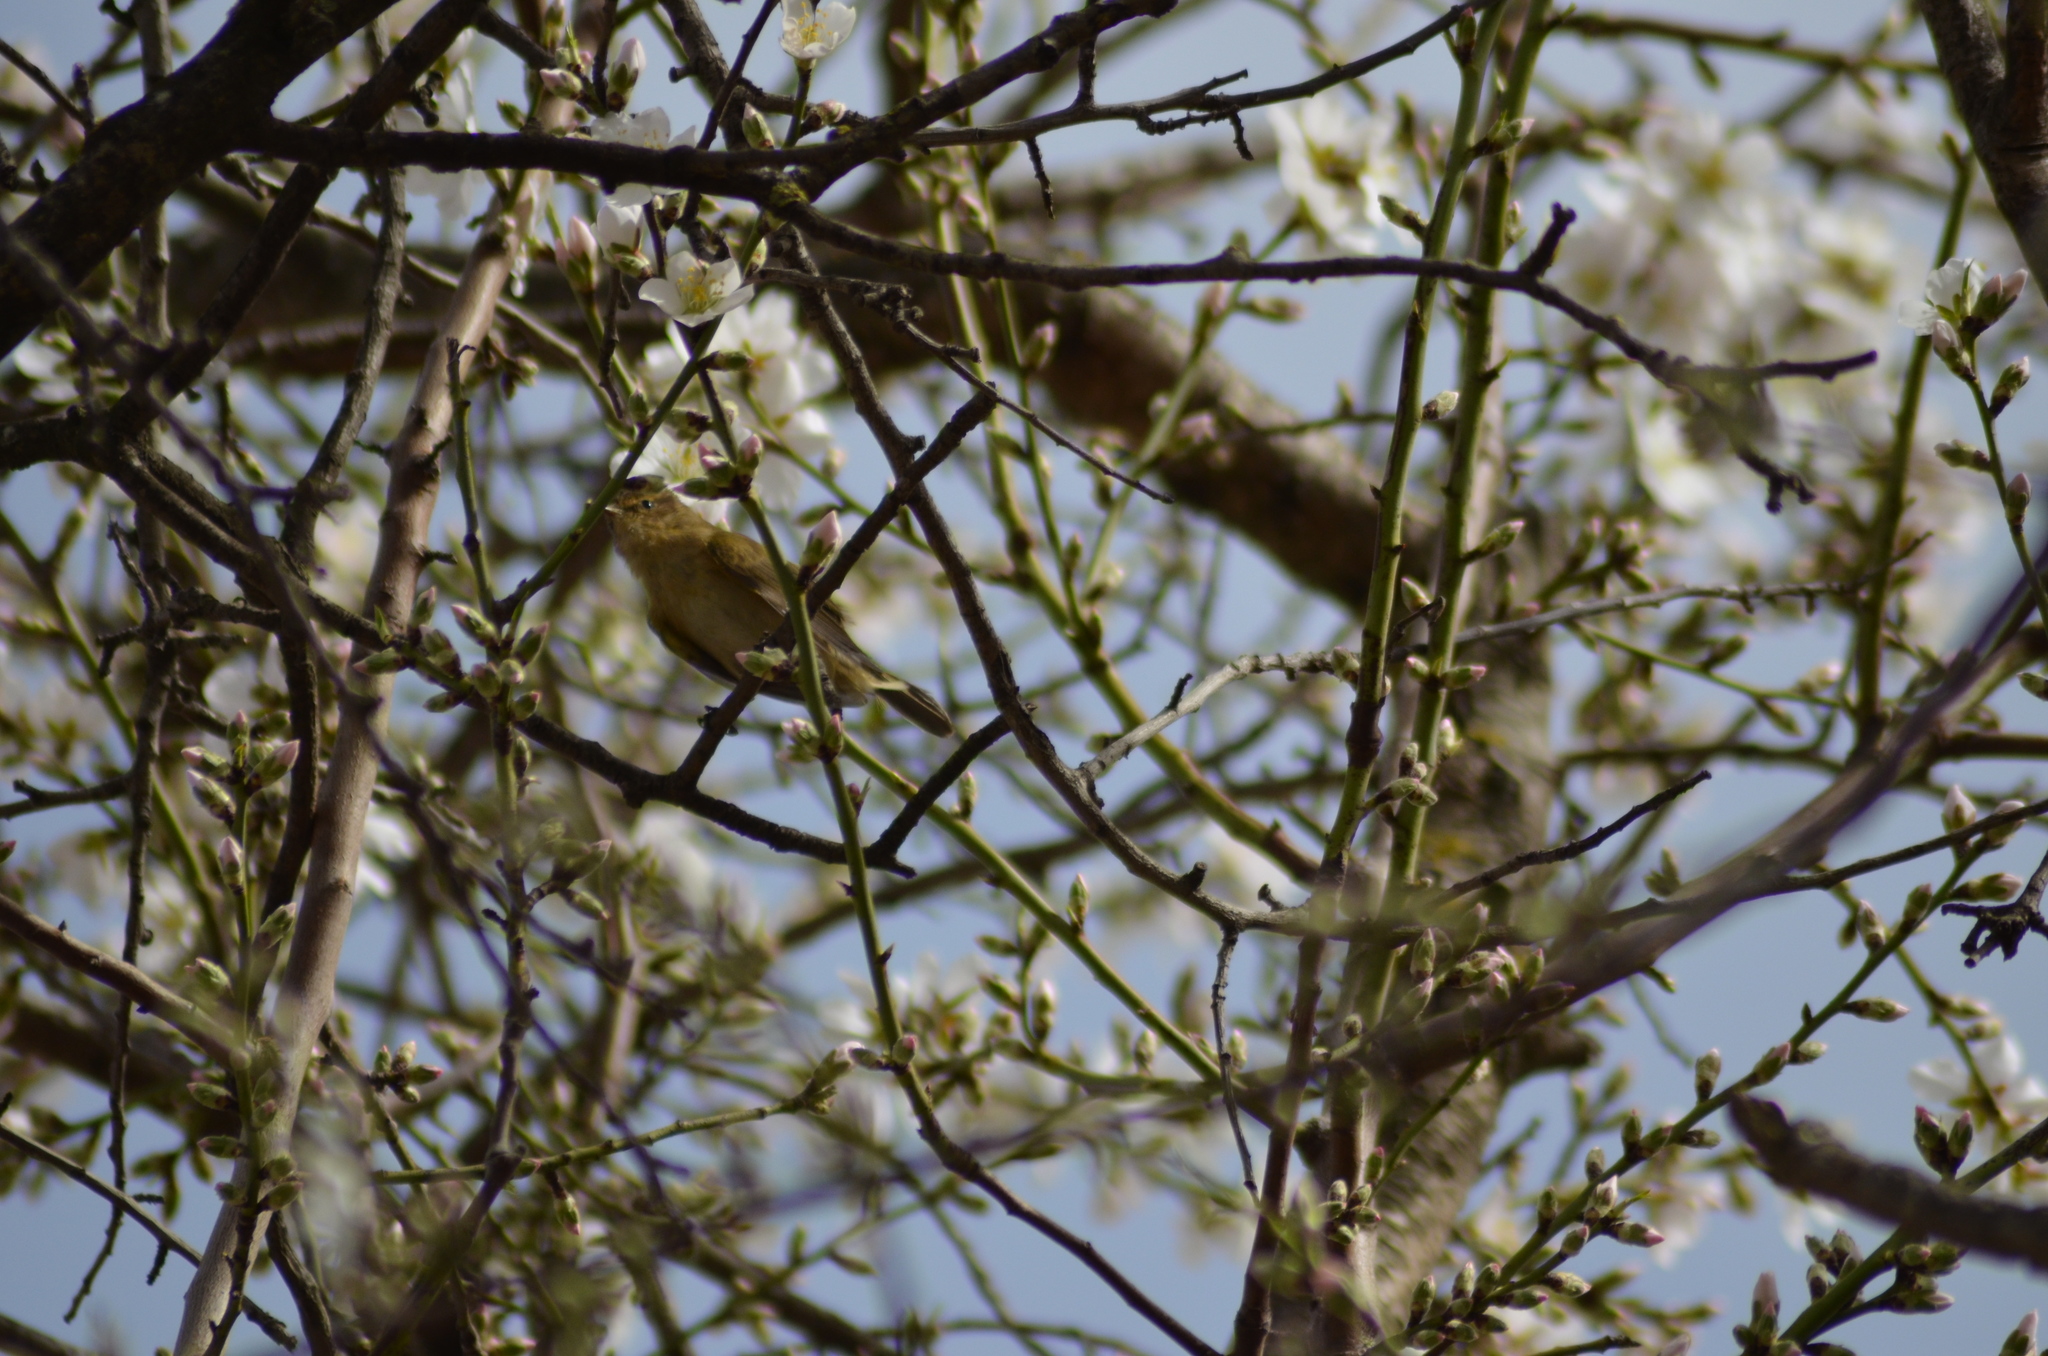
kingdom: Animalia
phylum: Chordata
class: Aves
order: Passeriformes
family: Phylloscopidae
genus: Phylloscopus
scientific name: Phylloscopus collybita
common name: Common chiffchaff
